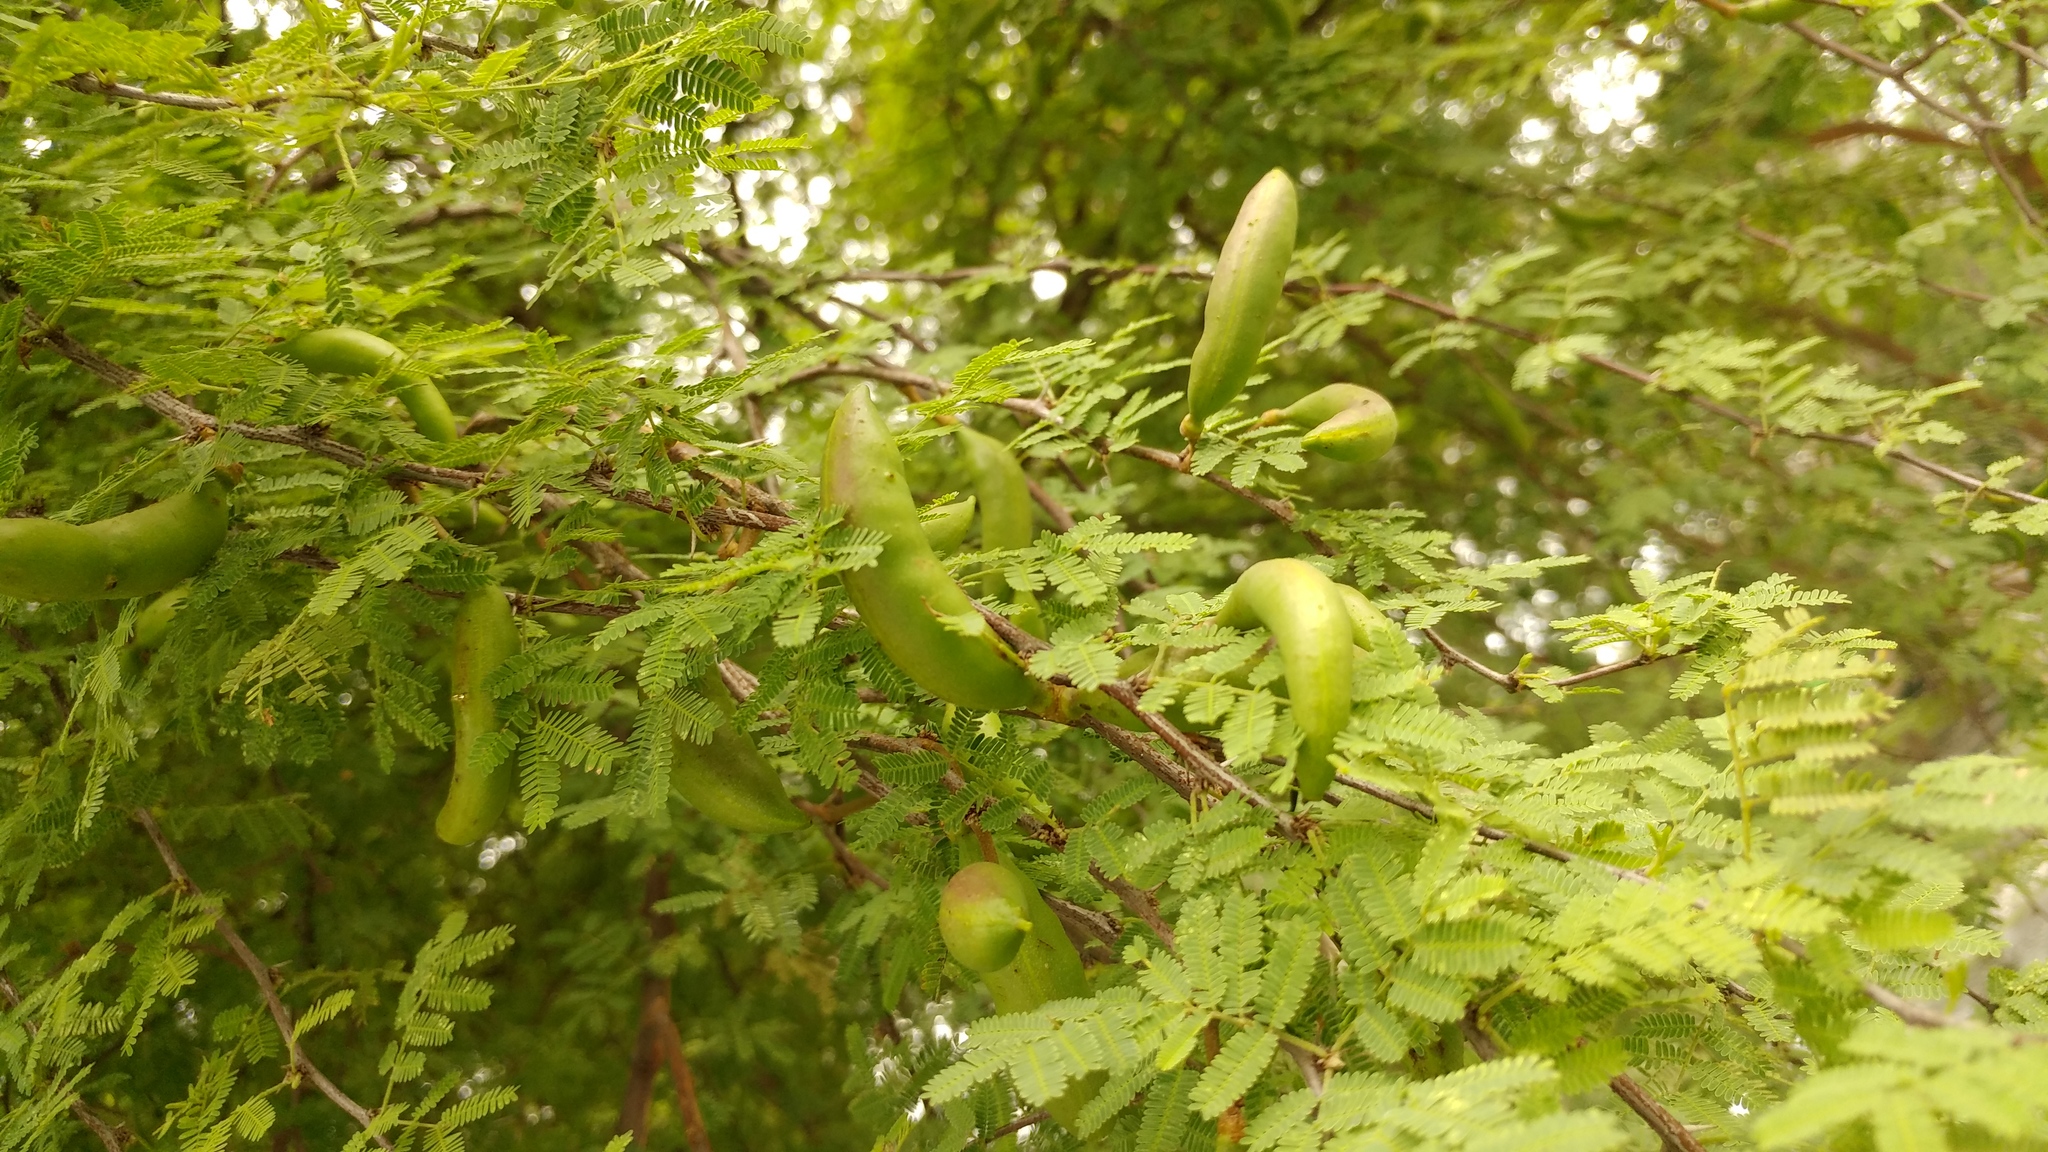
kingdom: Plantae
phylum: Tracheophyta
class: Magnoliopsida
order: Fabales
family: Fabaceae
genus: Vachellia
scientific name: Vachellia farnesiana
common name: Sweet acacia
